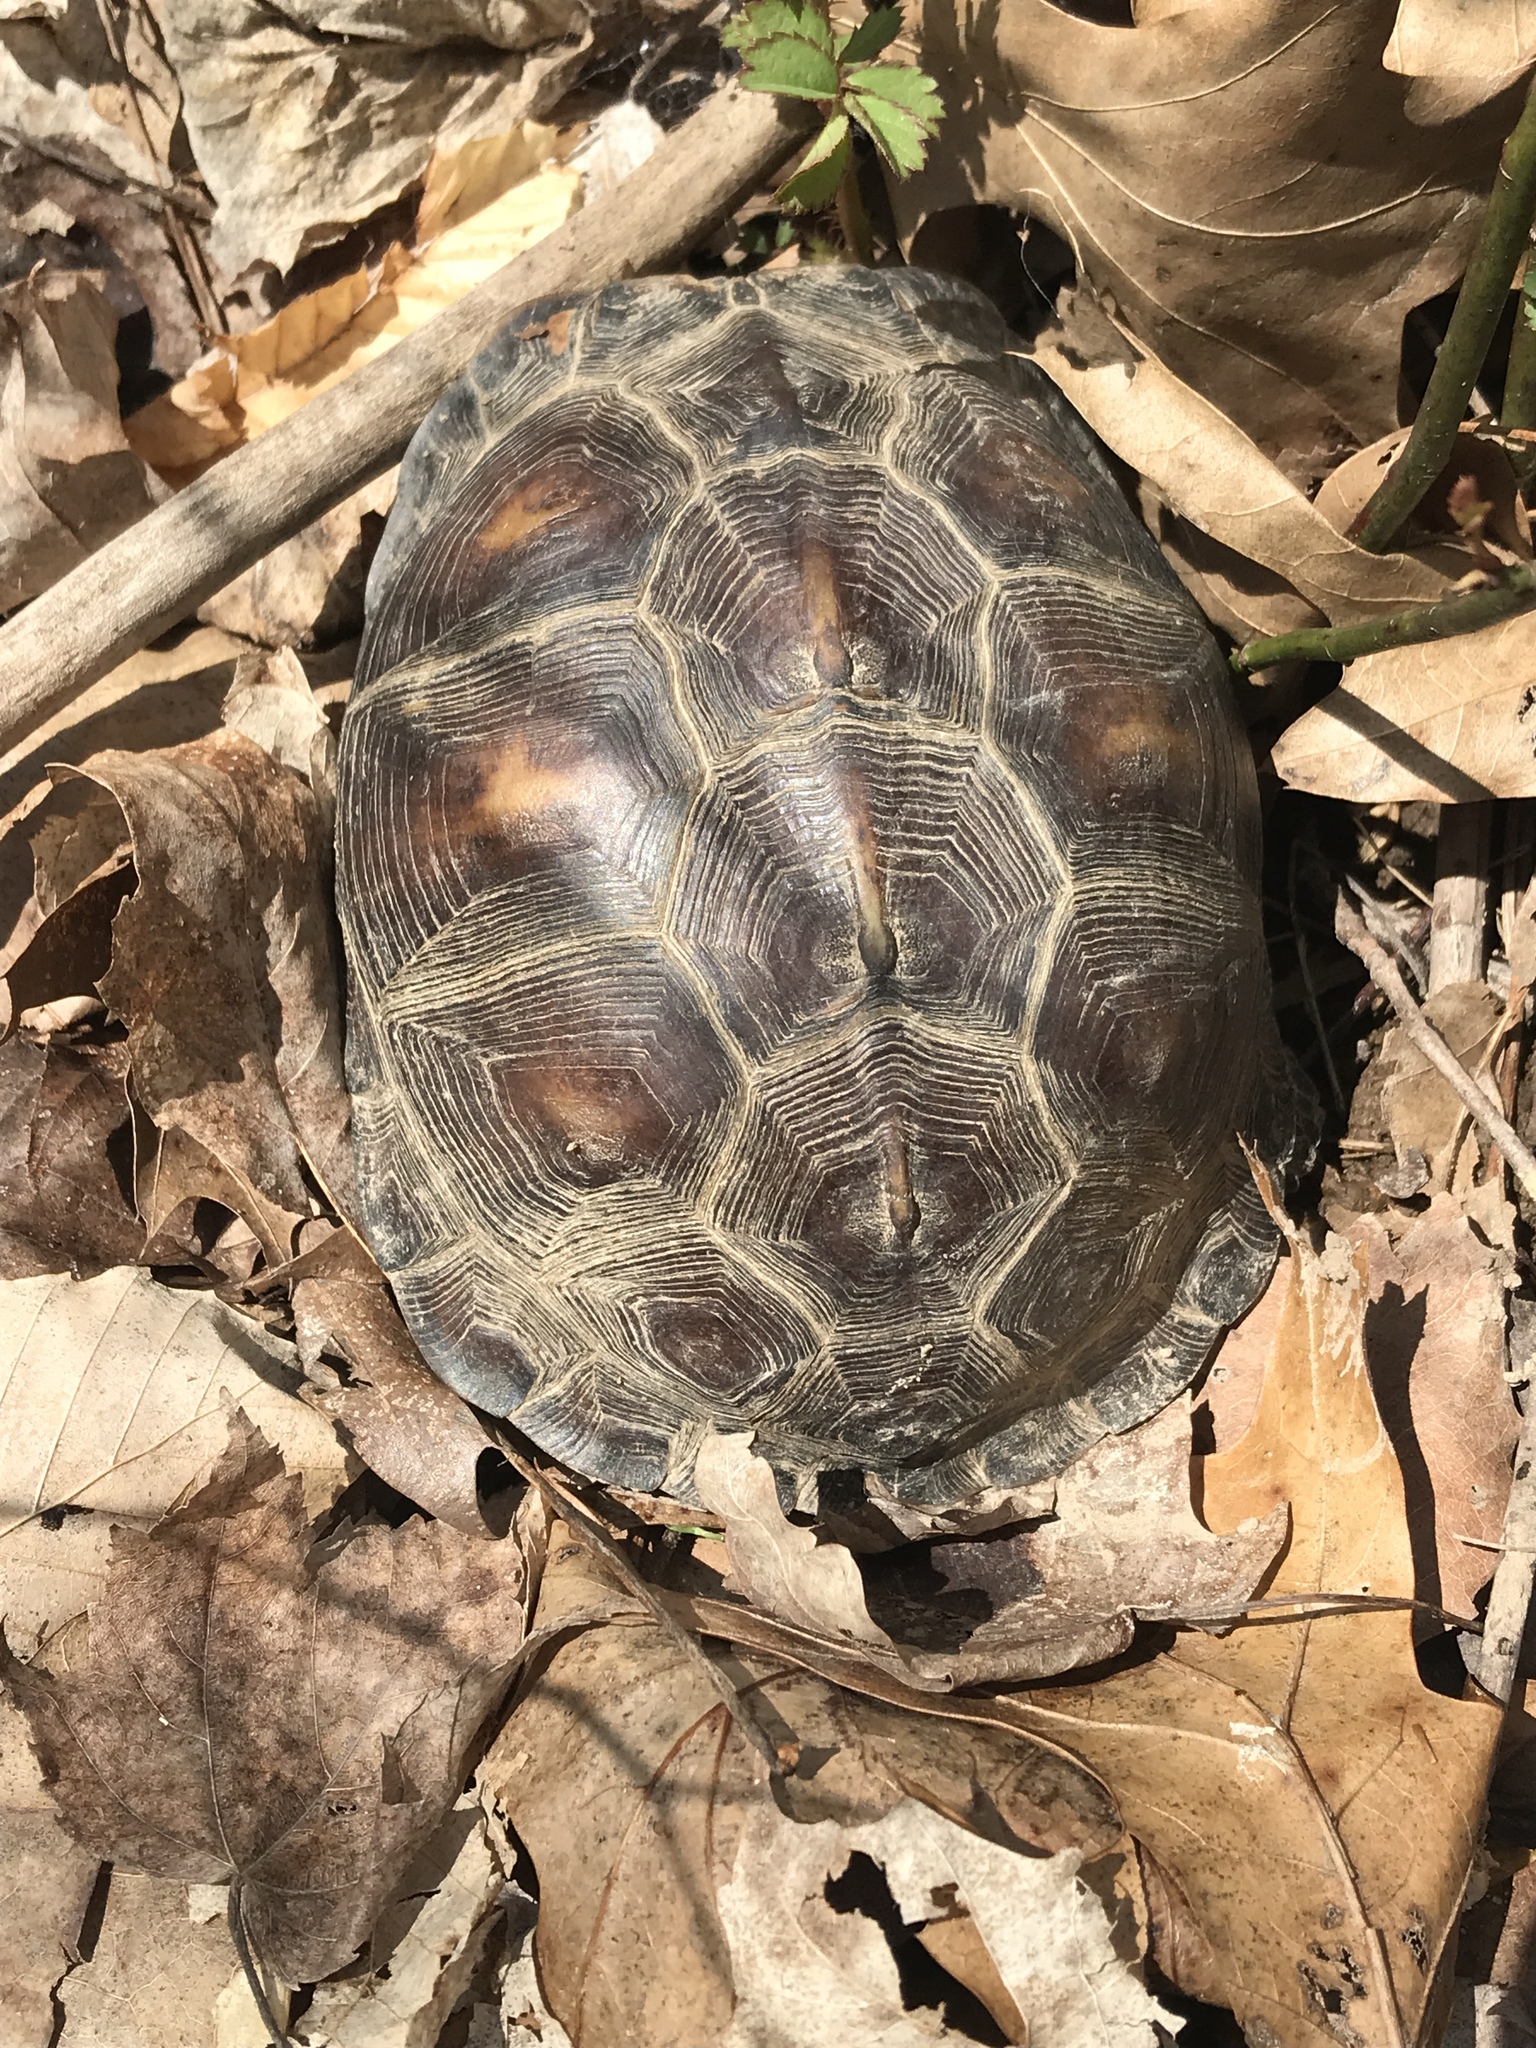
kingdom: Animalia
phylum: Chordata
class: Testudines
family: Emydidae
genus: Terrapene
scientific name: Terrapene carolina
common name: Common box turtle
